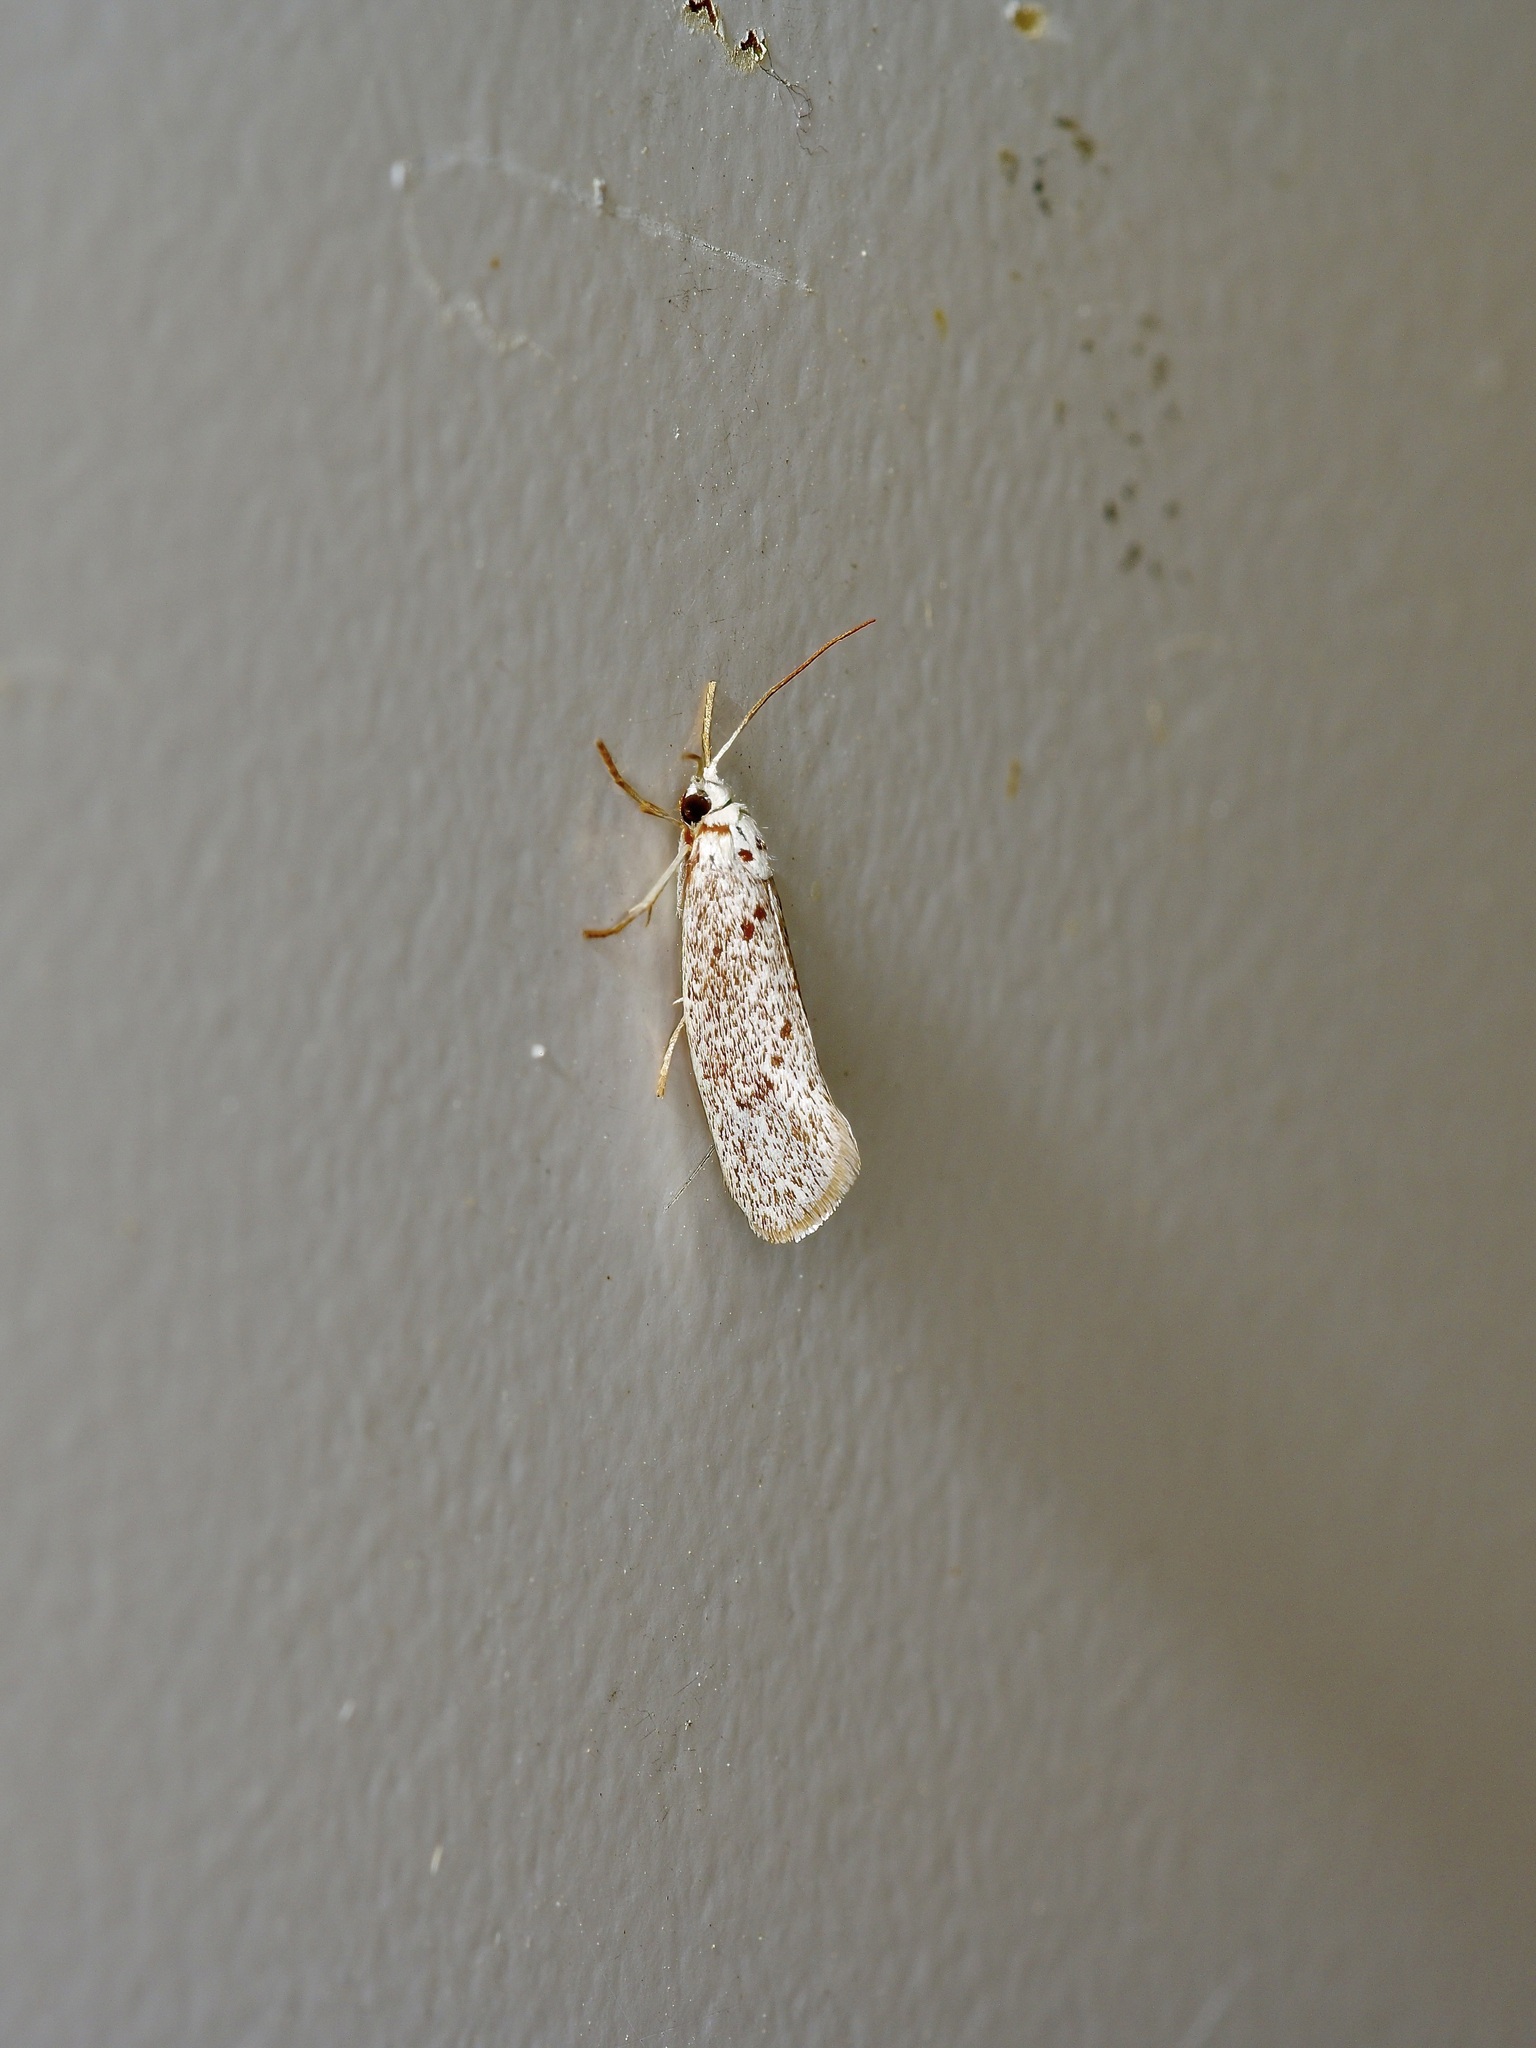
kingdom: Animalia
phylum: Arthropoda
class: Insecta
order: Lepidoptera
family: Lacturidae
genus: Lactura
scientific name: Lactura
